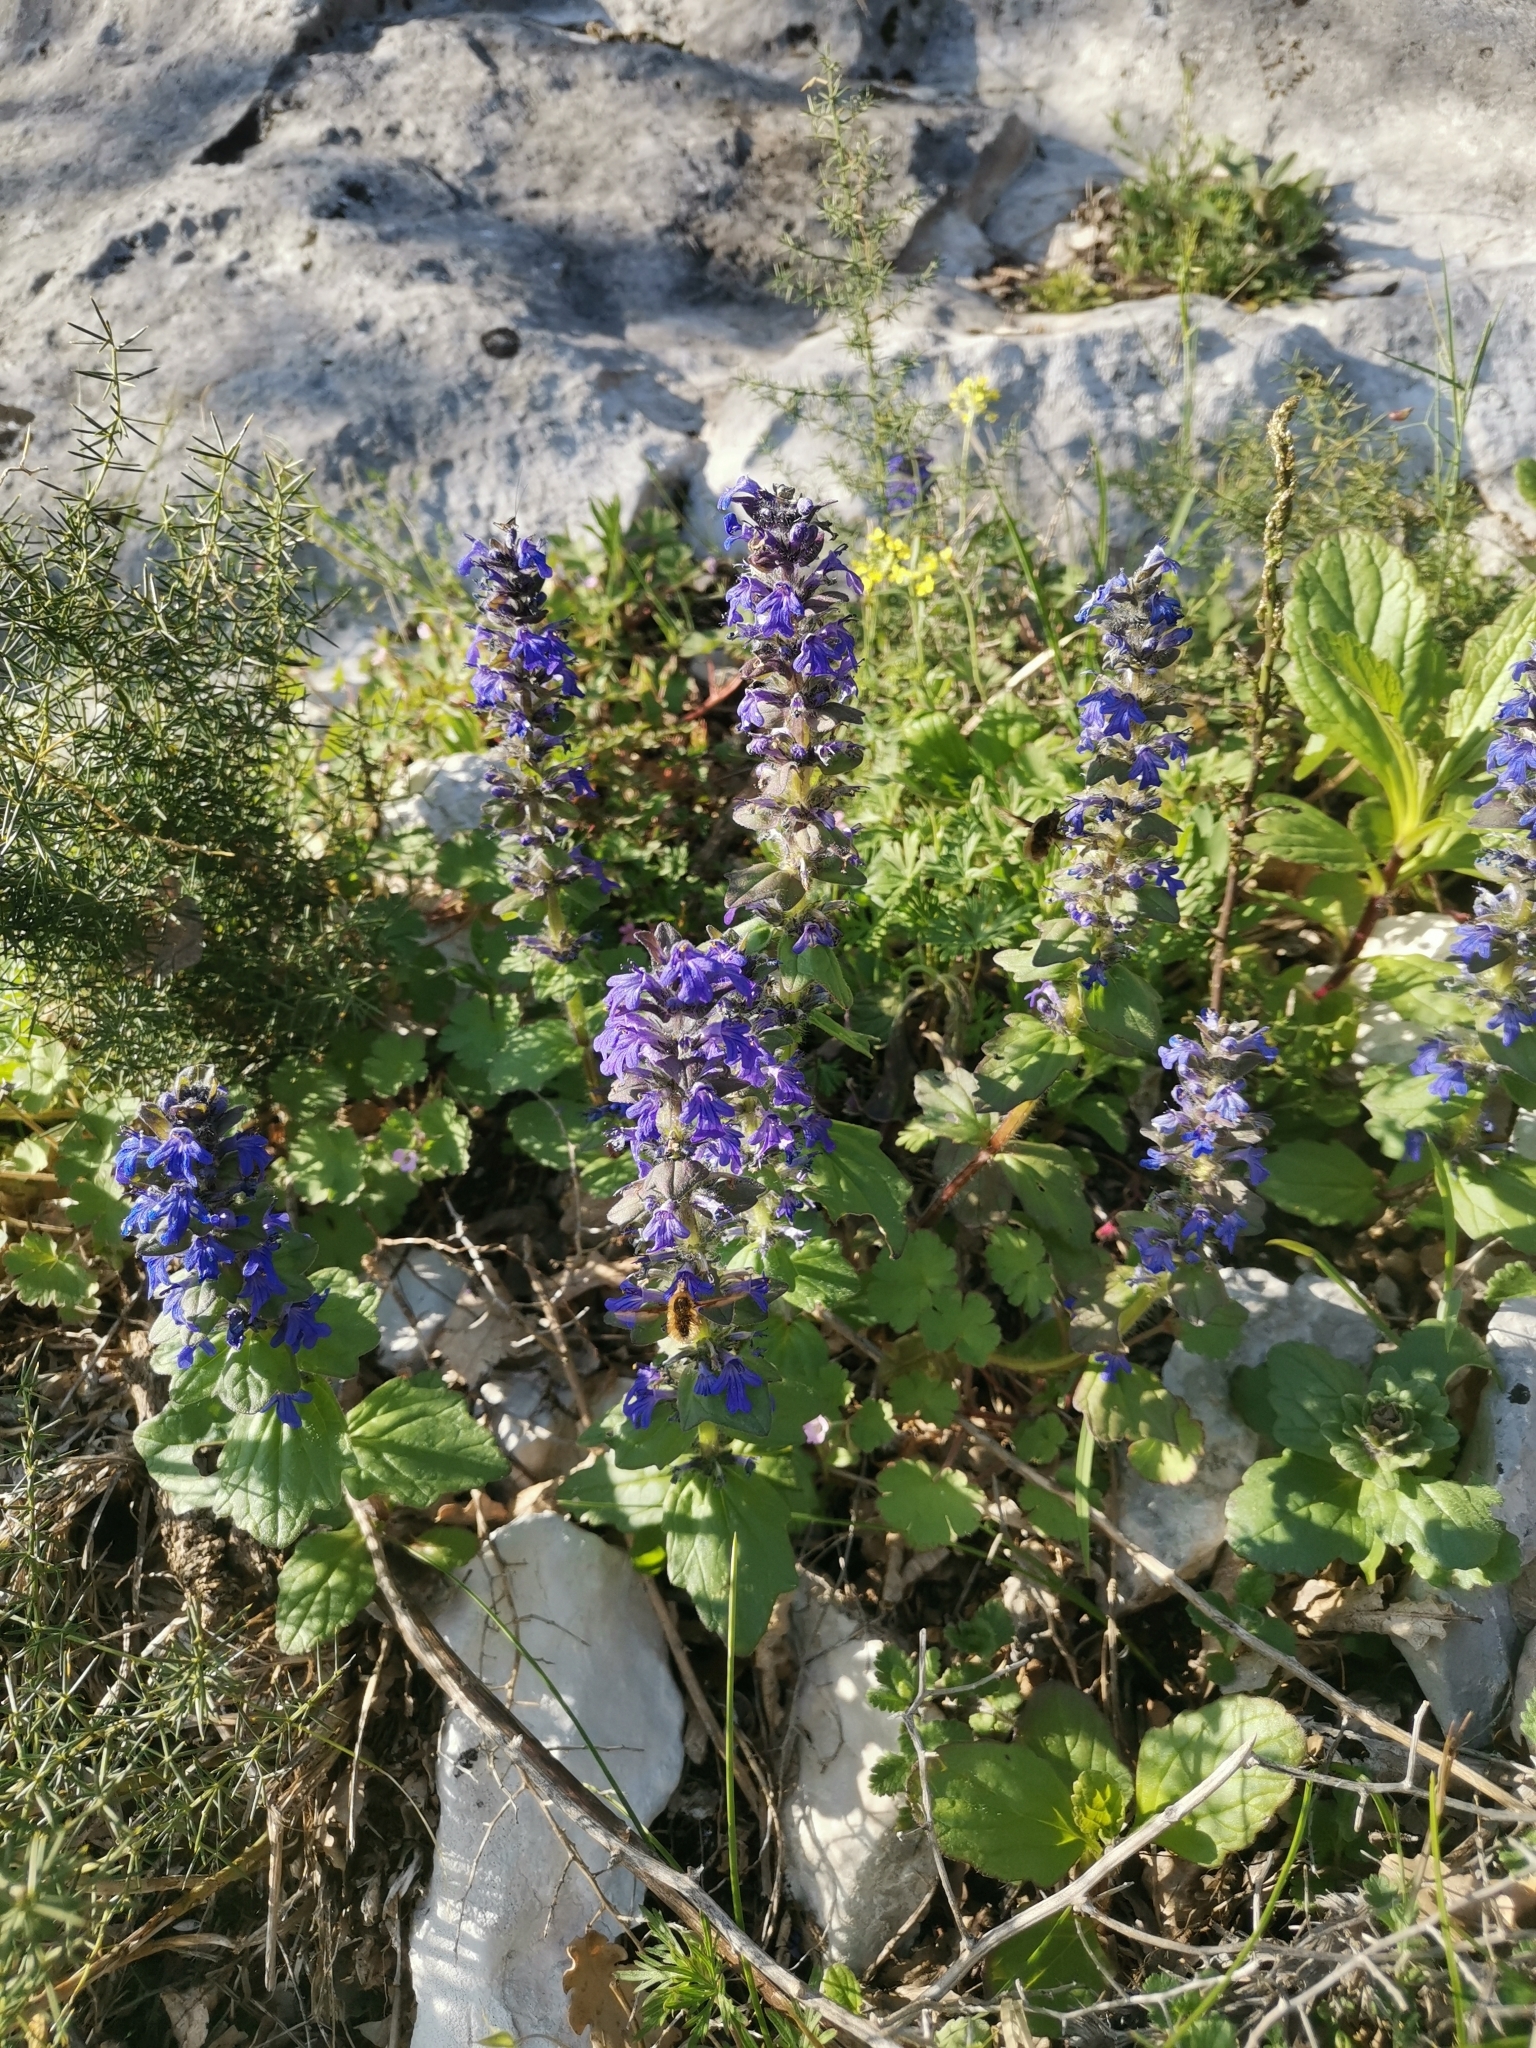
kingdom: Plantae
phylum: Tracheophyta
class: Magnoliopsida
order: Lamiales
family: Lamiaceae
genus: Ajuga
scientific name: Ajuga genevensis
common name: Blue bugle
